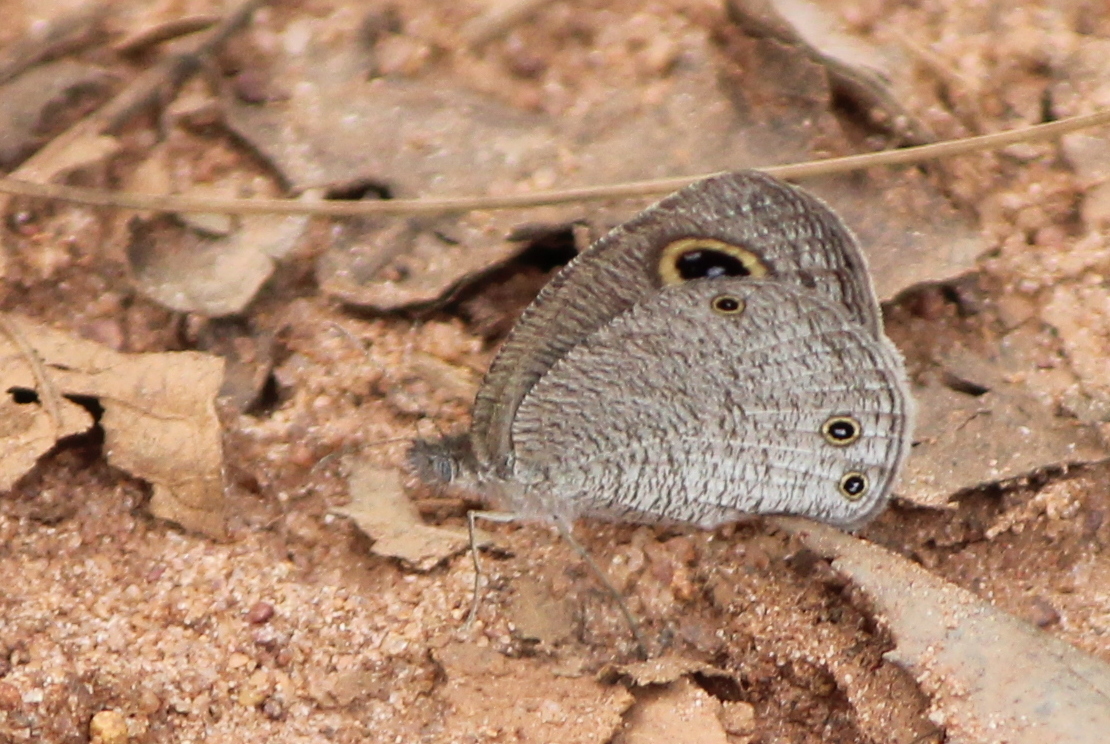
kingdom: Animalia
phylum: Arthropoda
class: Insecta
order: Lepidoptera
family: Nymphalidae
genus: Ypthima
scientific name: Ypthima asterope
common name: African ringlet
